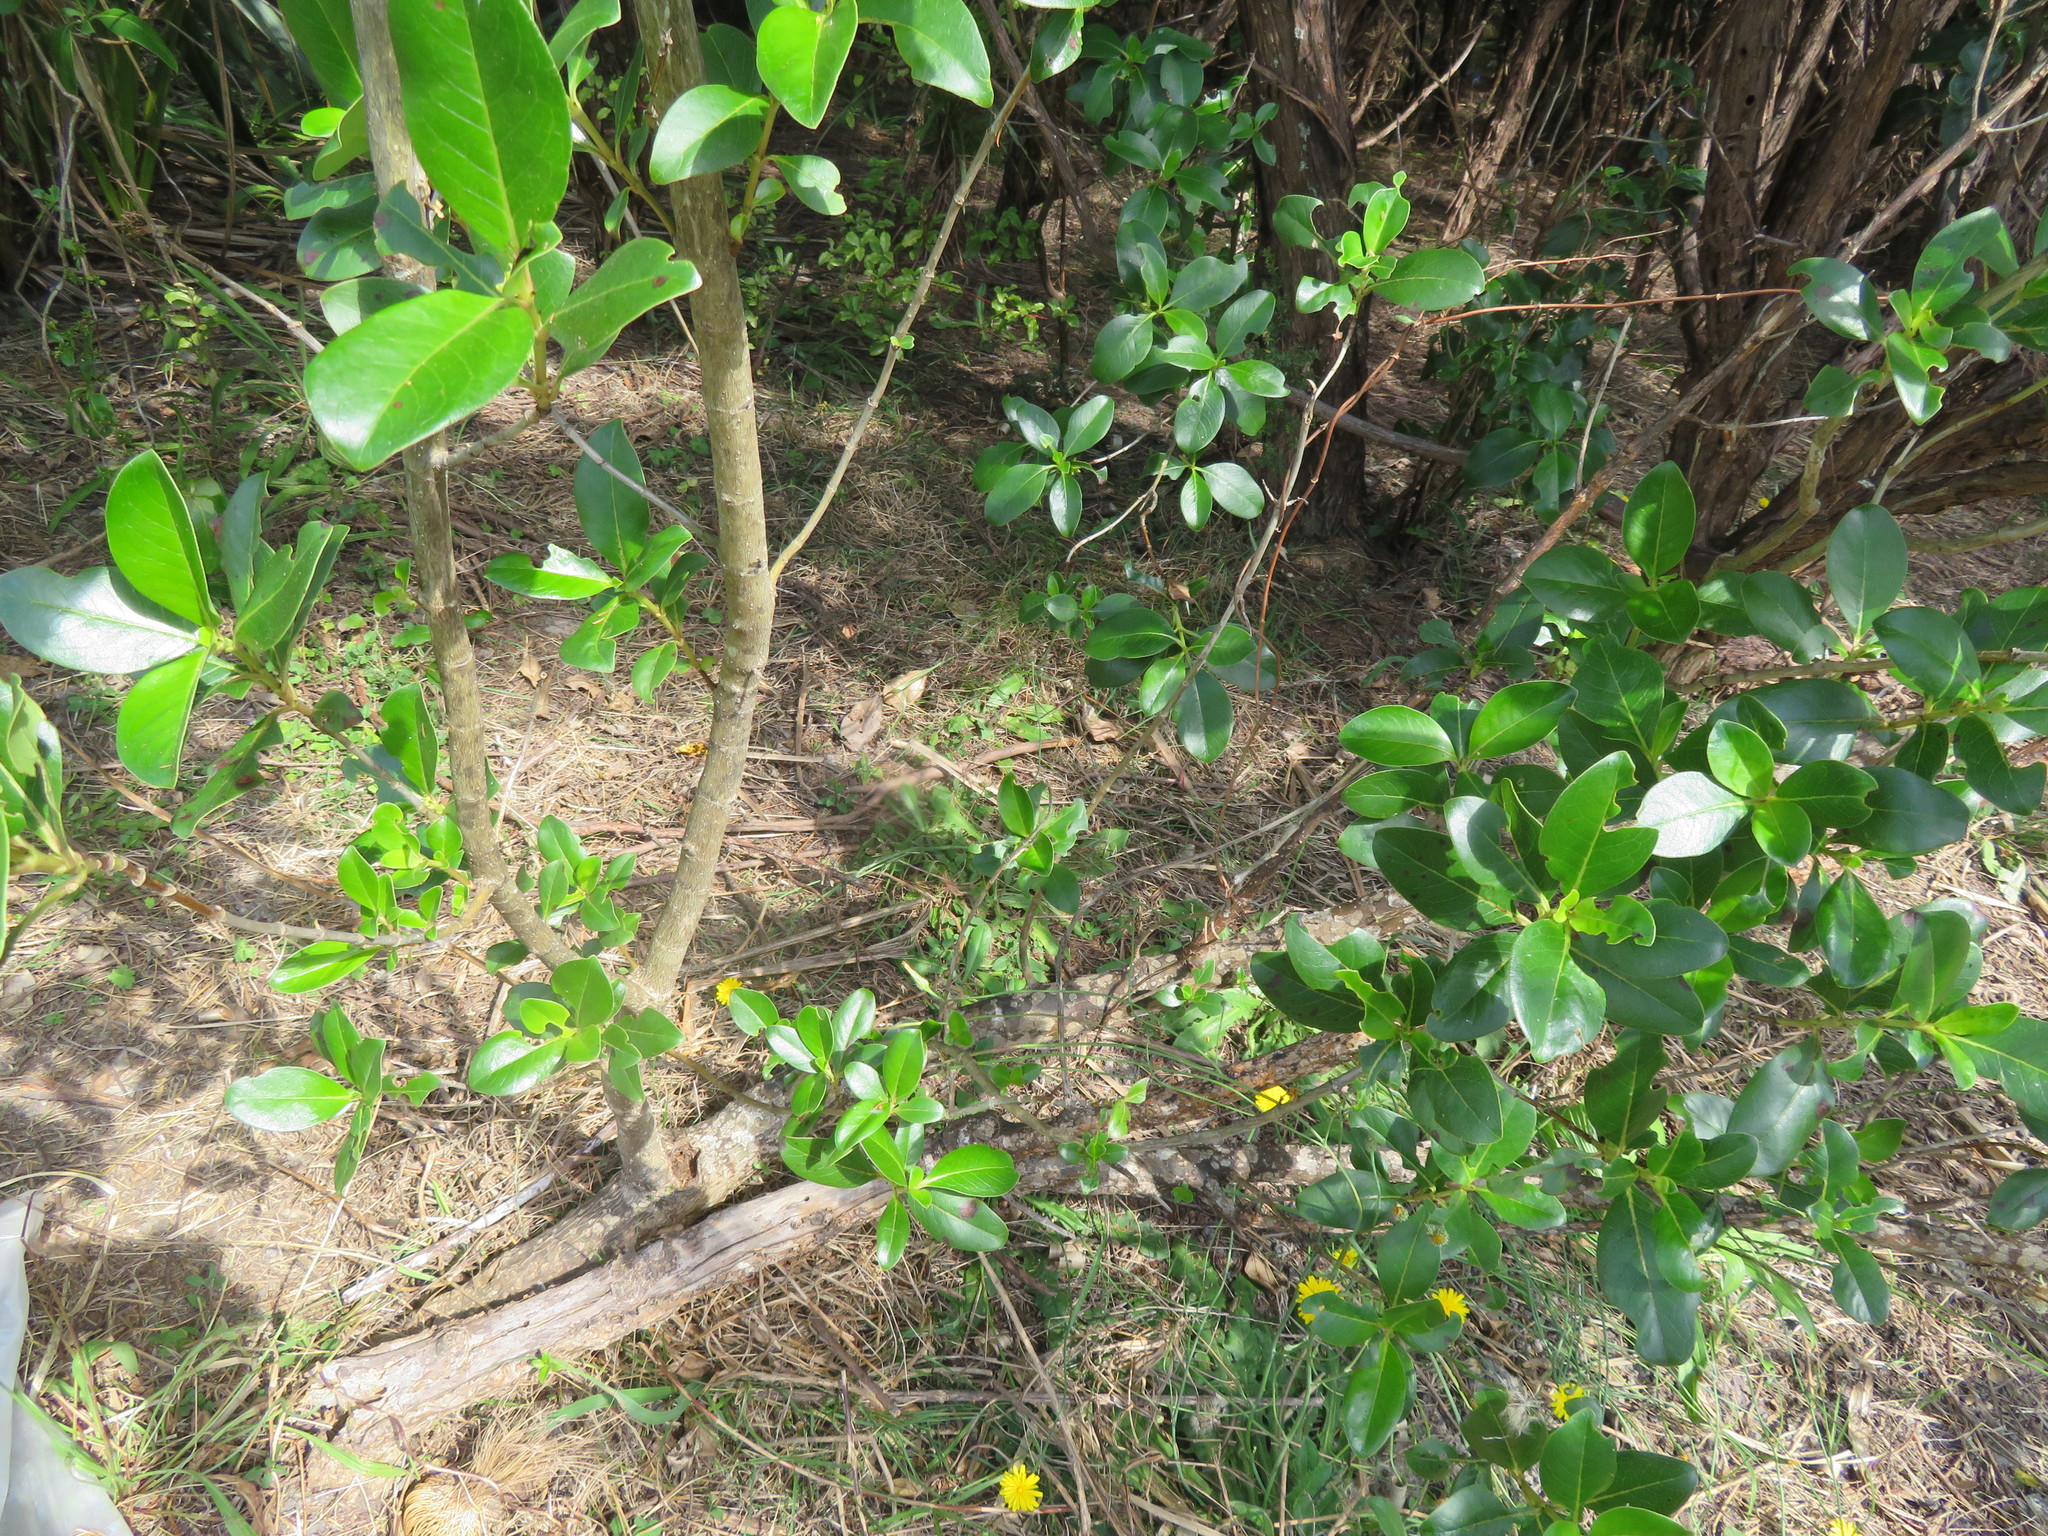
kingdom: Plantae
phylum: Tracheophyta
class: Magnoliopsida
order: Gentianales
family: Rubiaceae
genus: Coprosma
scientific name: Coprosma robusta
